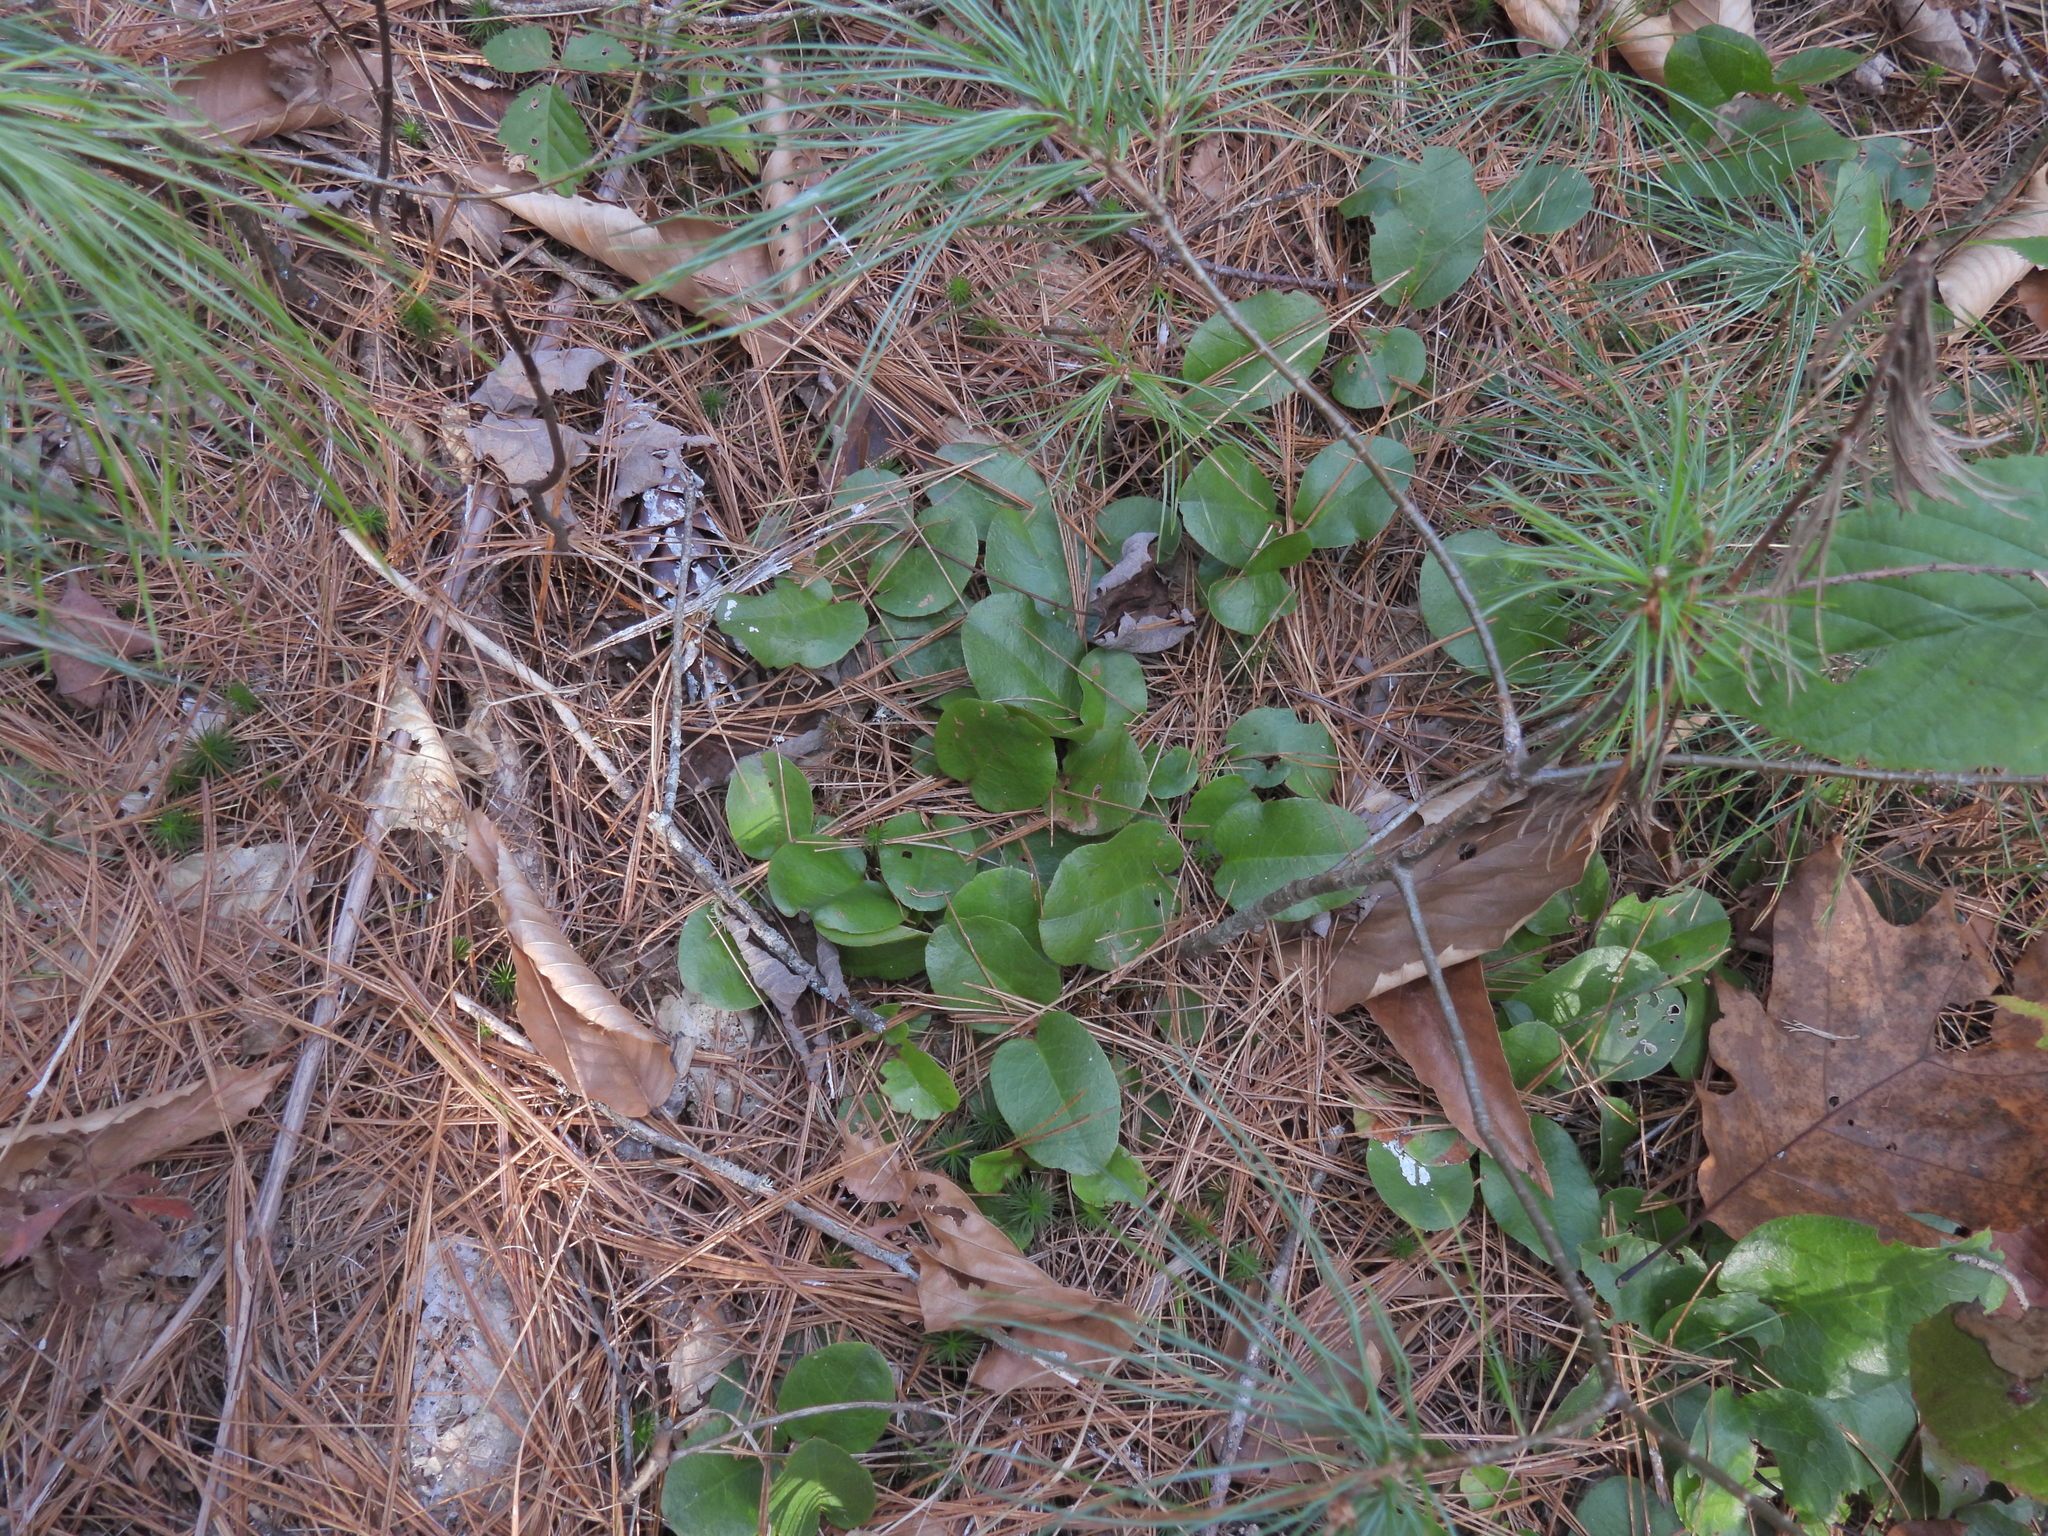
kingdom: Plantae
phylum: Tracheophyta
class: Magnoliopsida
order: Ericales
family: Ericaceae
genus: Epigaea
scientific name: Epigaea repens
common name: Gravelroot
